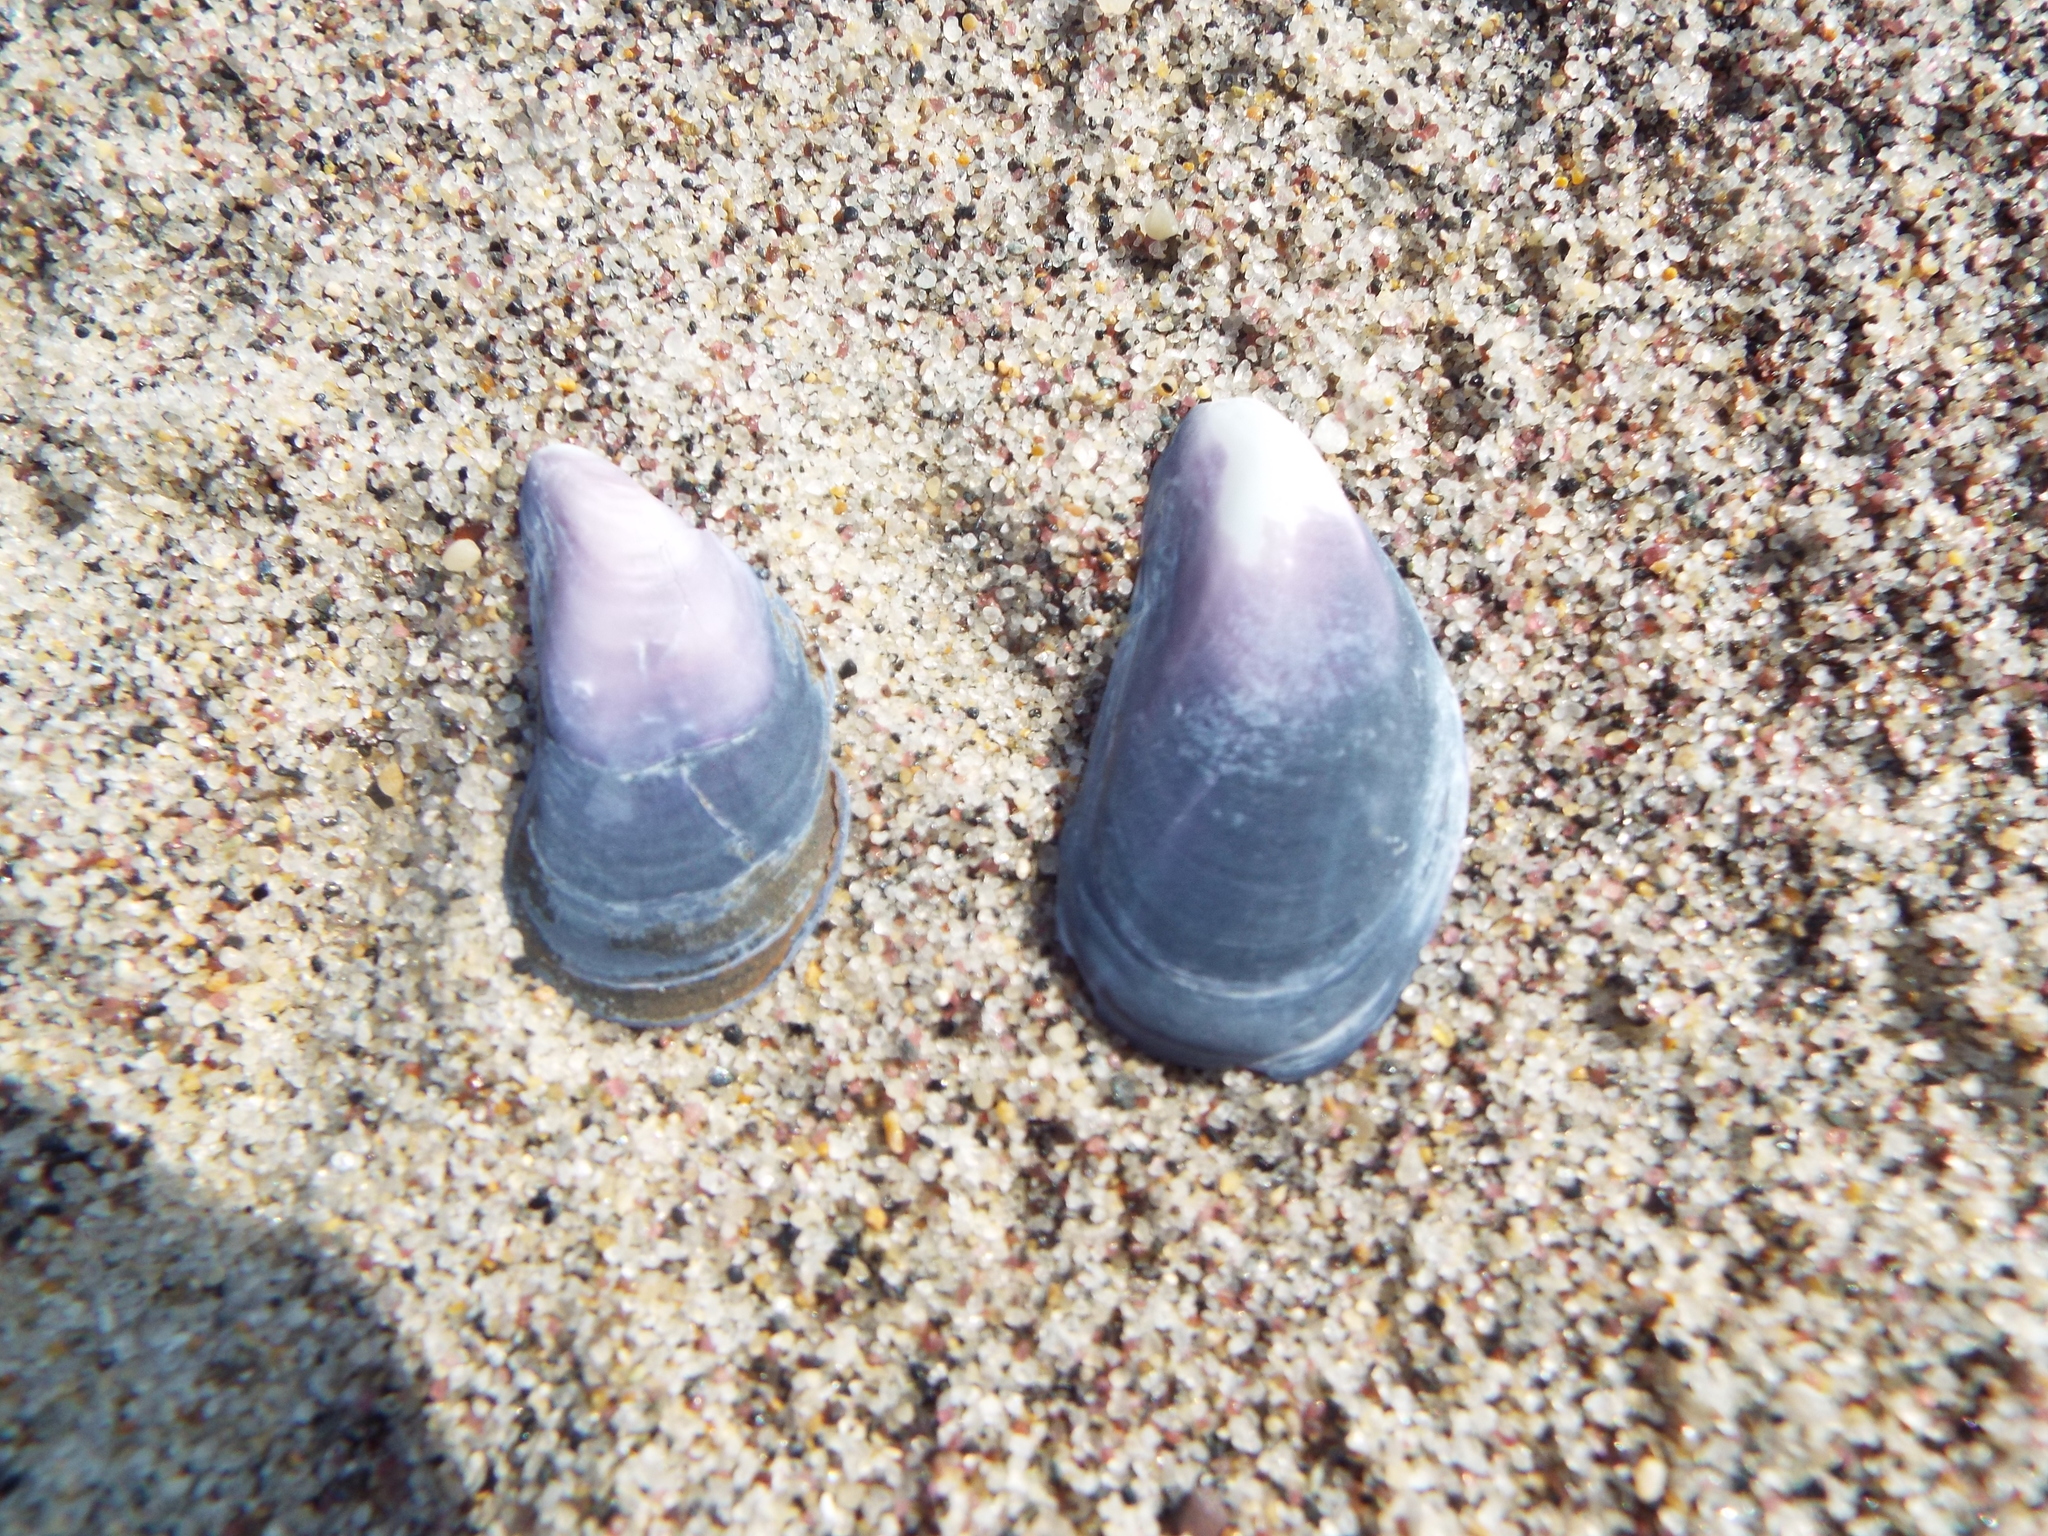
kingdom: Animalia
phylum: Mollusca
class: Bivalvia
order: Mytilida
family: Mytilidae
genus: Mytilus
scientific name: Mytilus edulis
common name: Blue mussel
